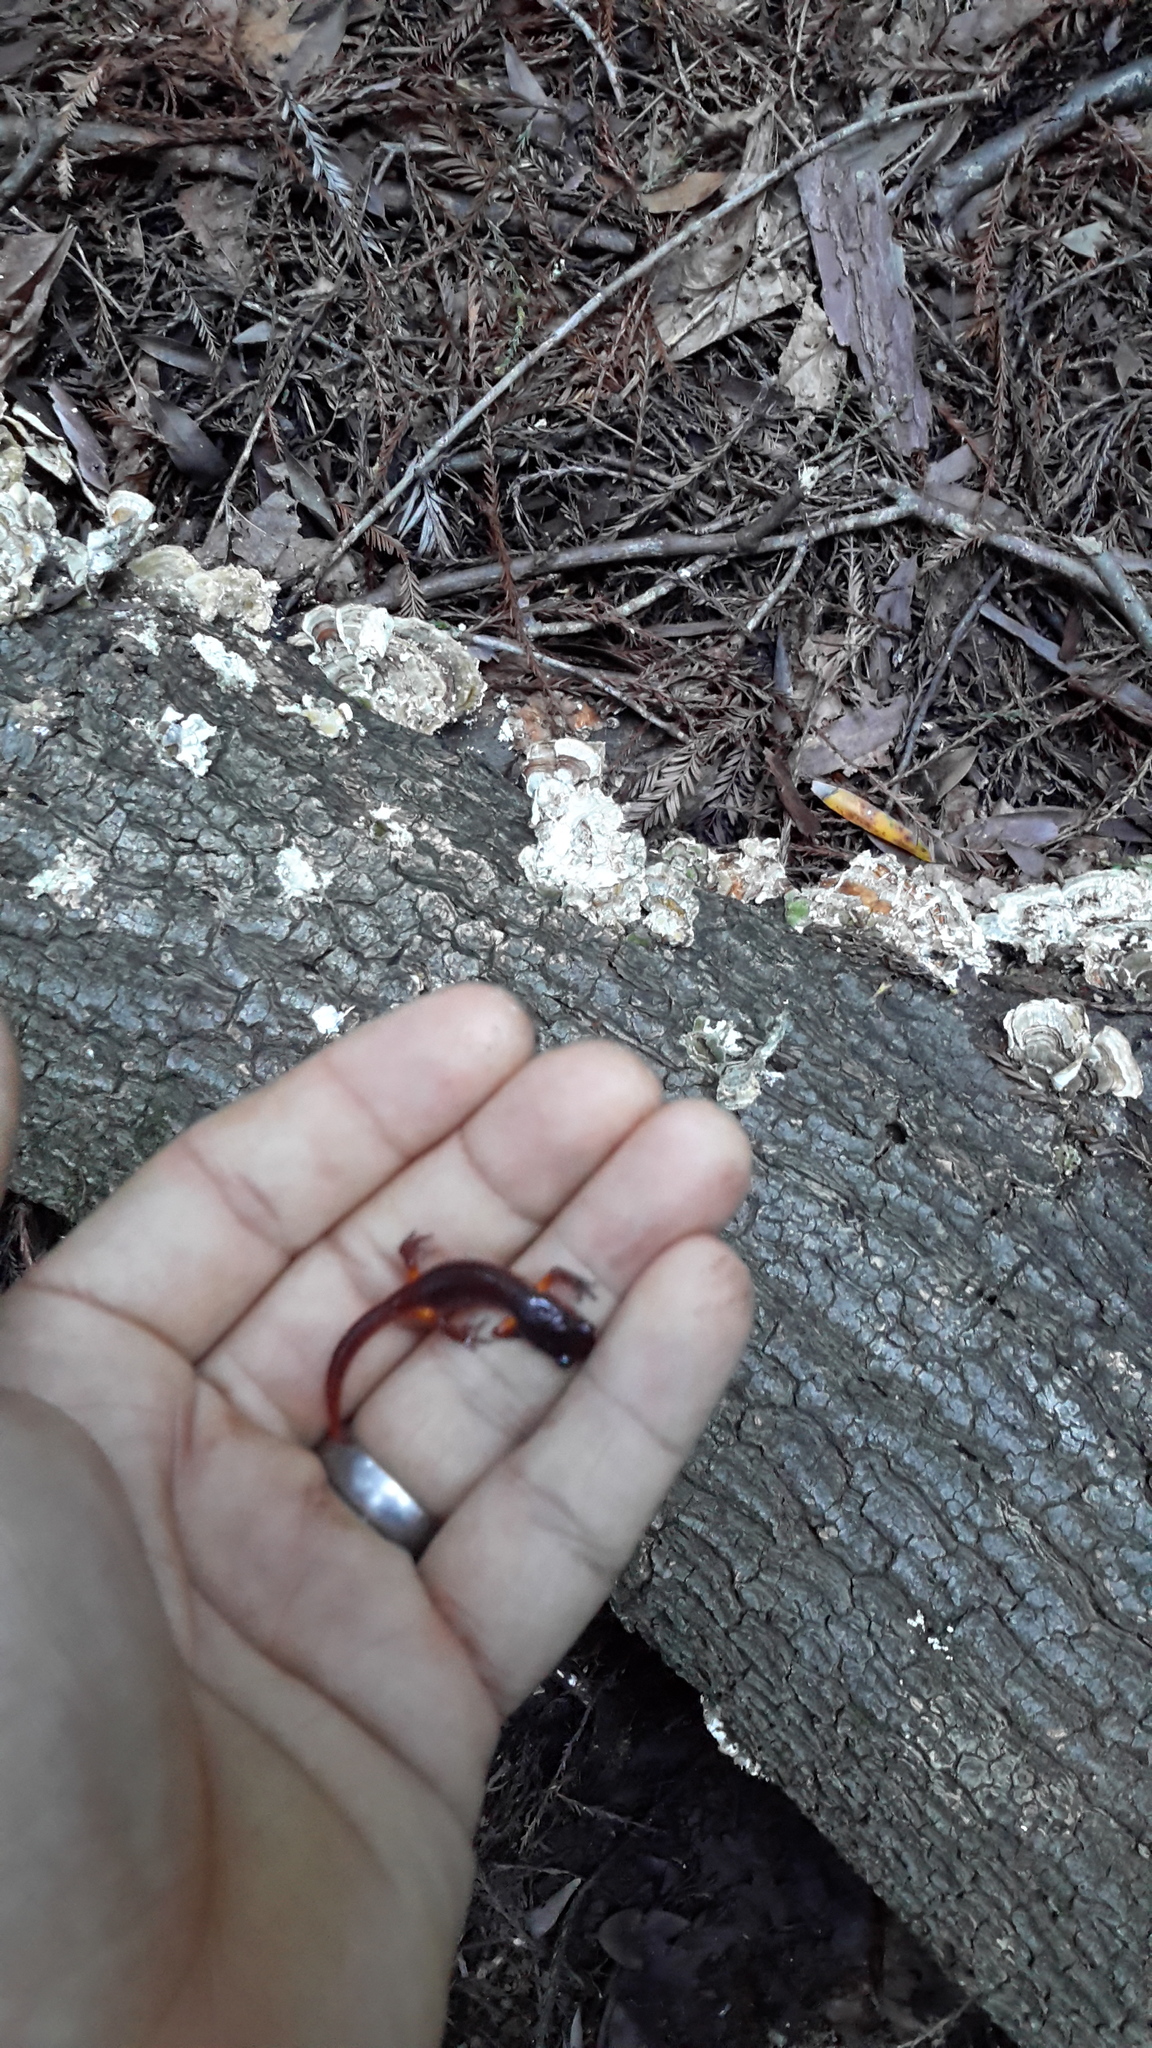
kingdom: Animalia
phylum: Chordata
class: Amphibia
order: Caudata
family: Plethodontidae
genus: Ensatina
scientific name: Ensatina eschscholtzii
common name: Ensatina
